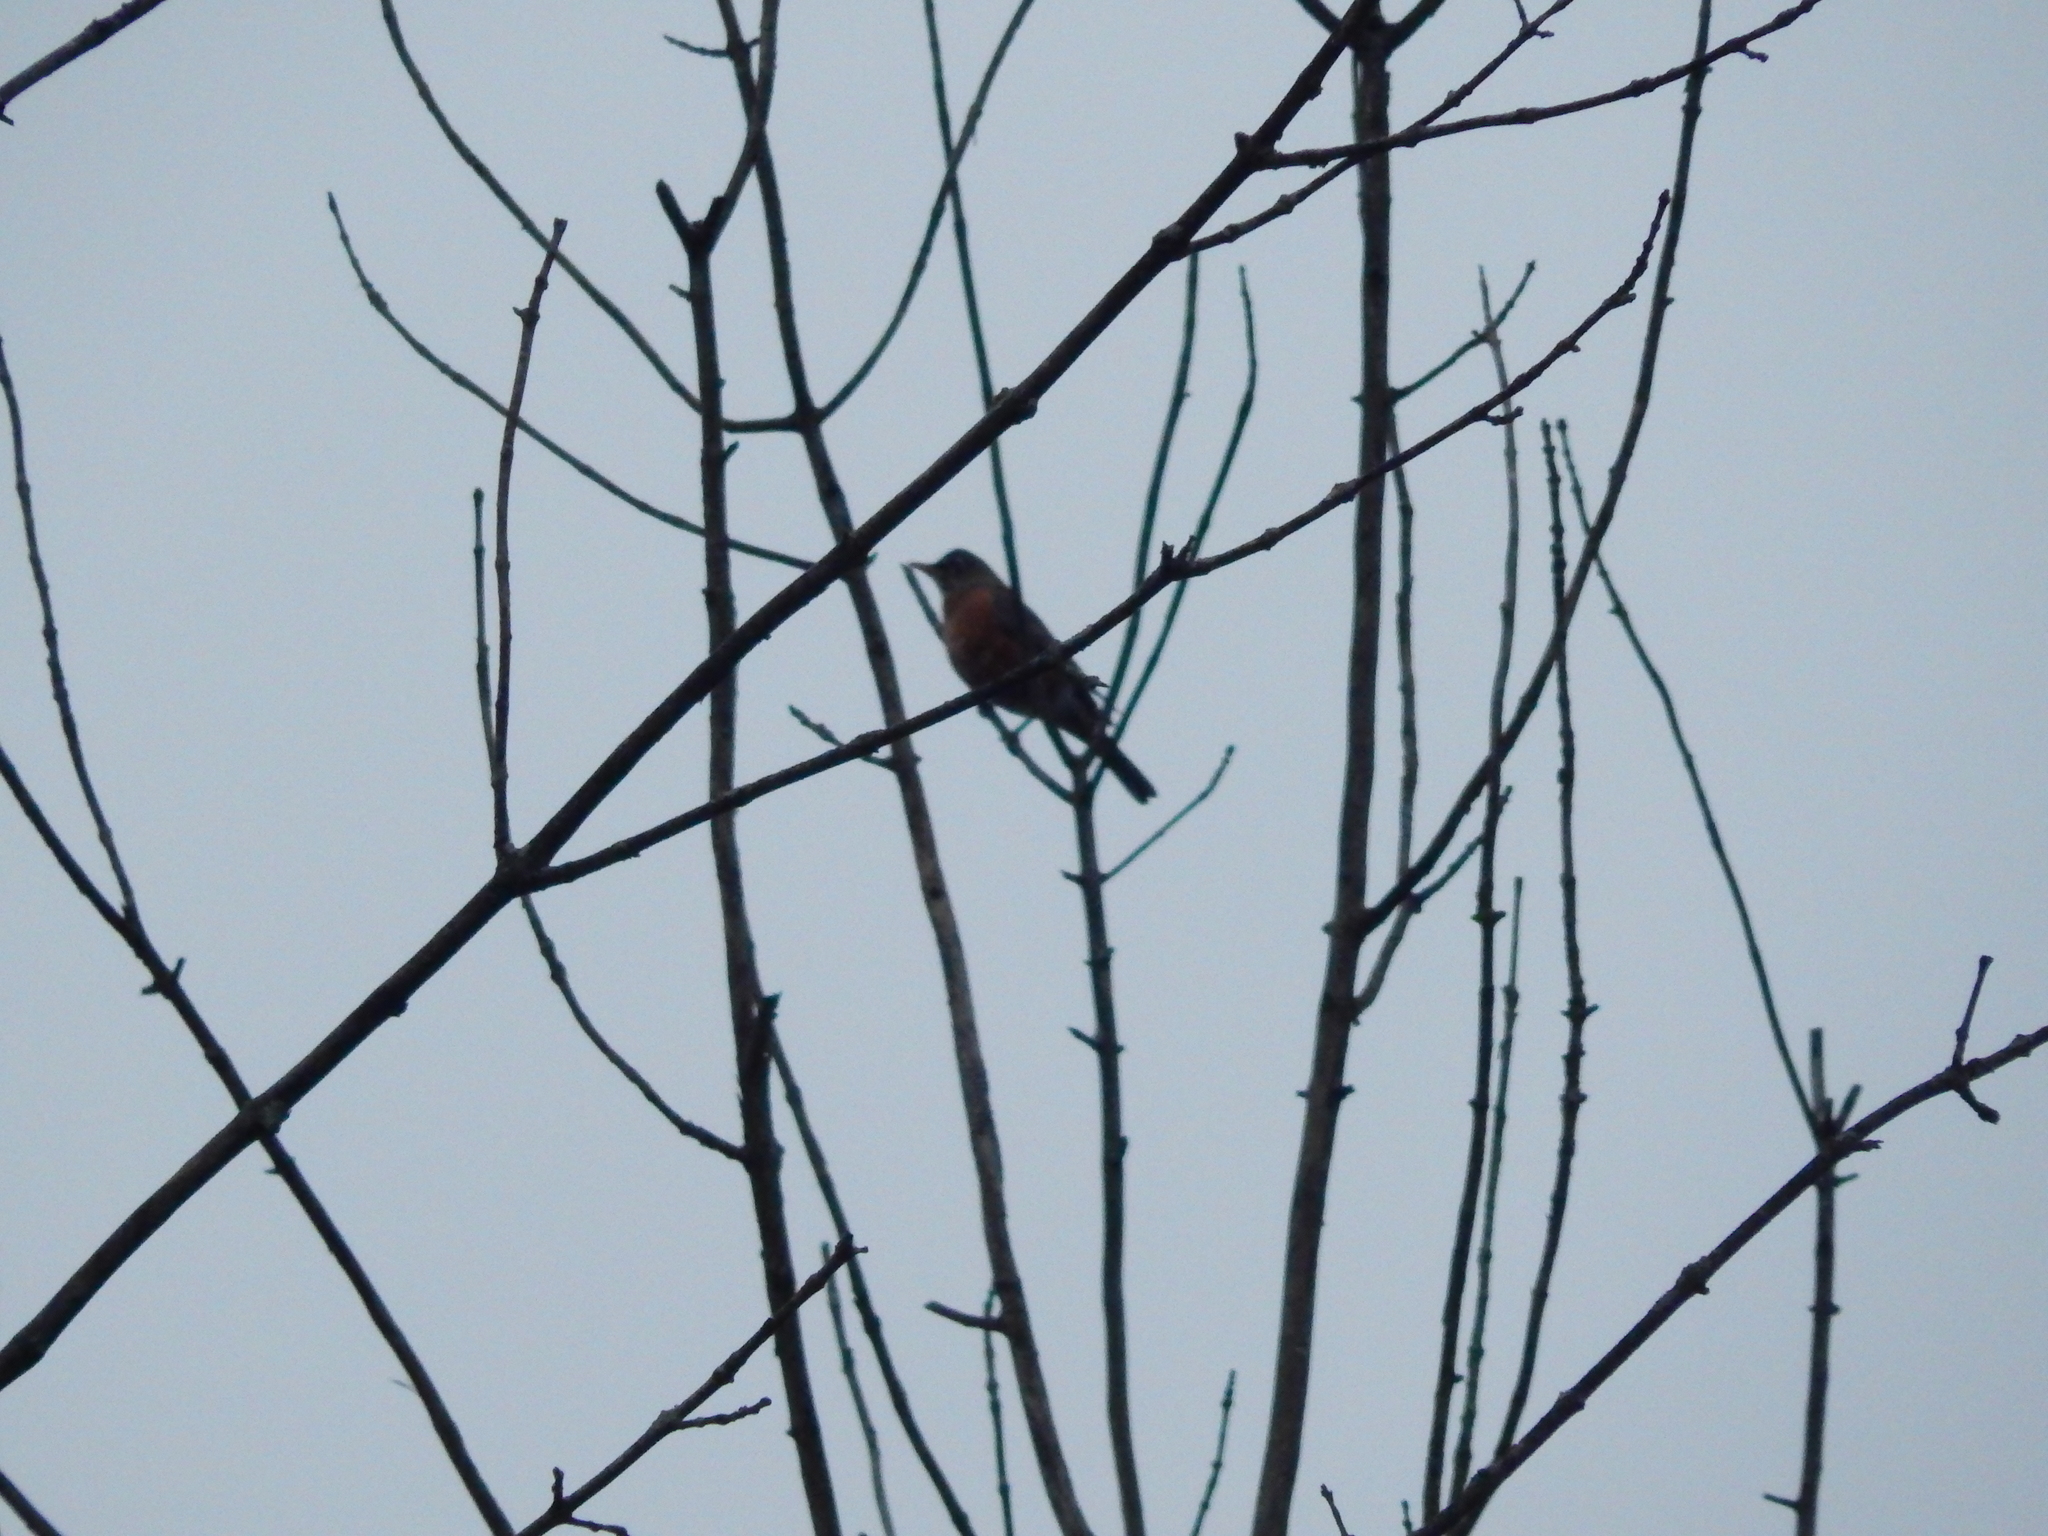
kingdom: Animalia
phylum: Chordata
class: Aves
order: Passeriformes
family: Turdidae
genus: Turdus
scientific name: Turdus migratorius
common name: American robin
